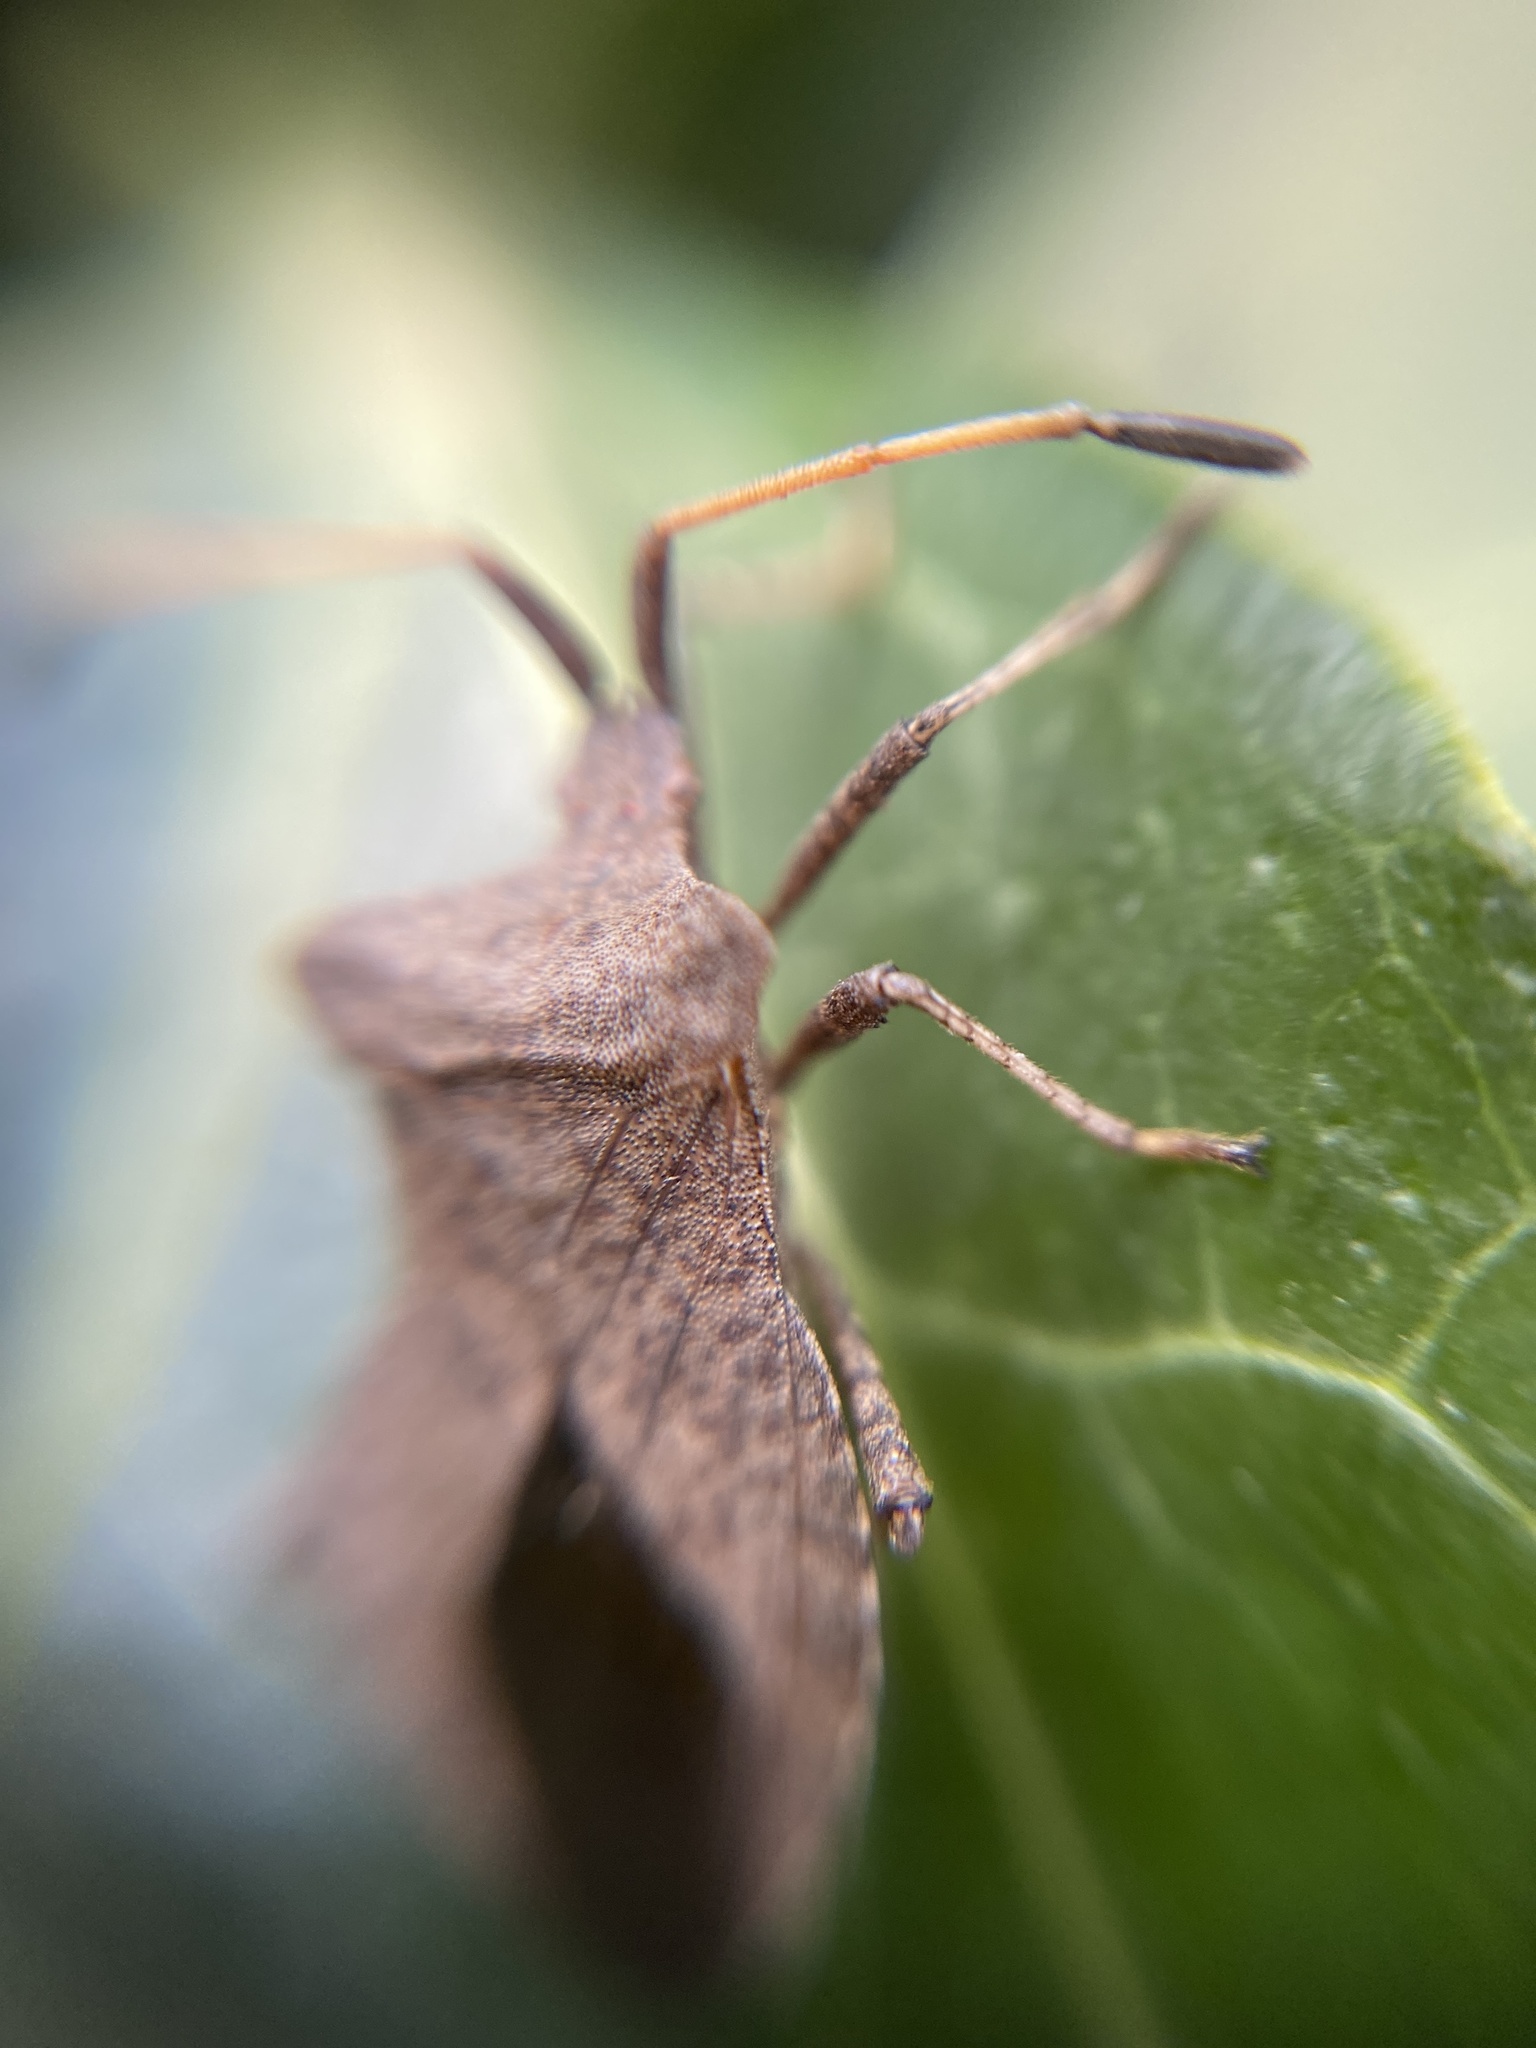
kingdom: Animalia
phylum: Arthropoda
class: Insecta
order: Hemiptera
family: Coreidae
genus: Coreus
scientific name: Coreus marginatus
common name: Dock bug
